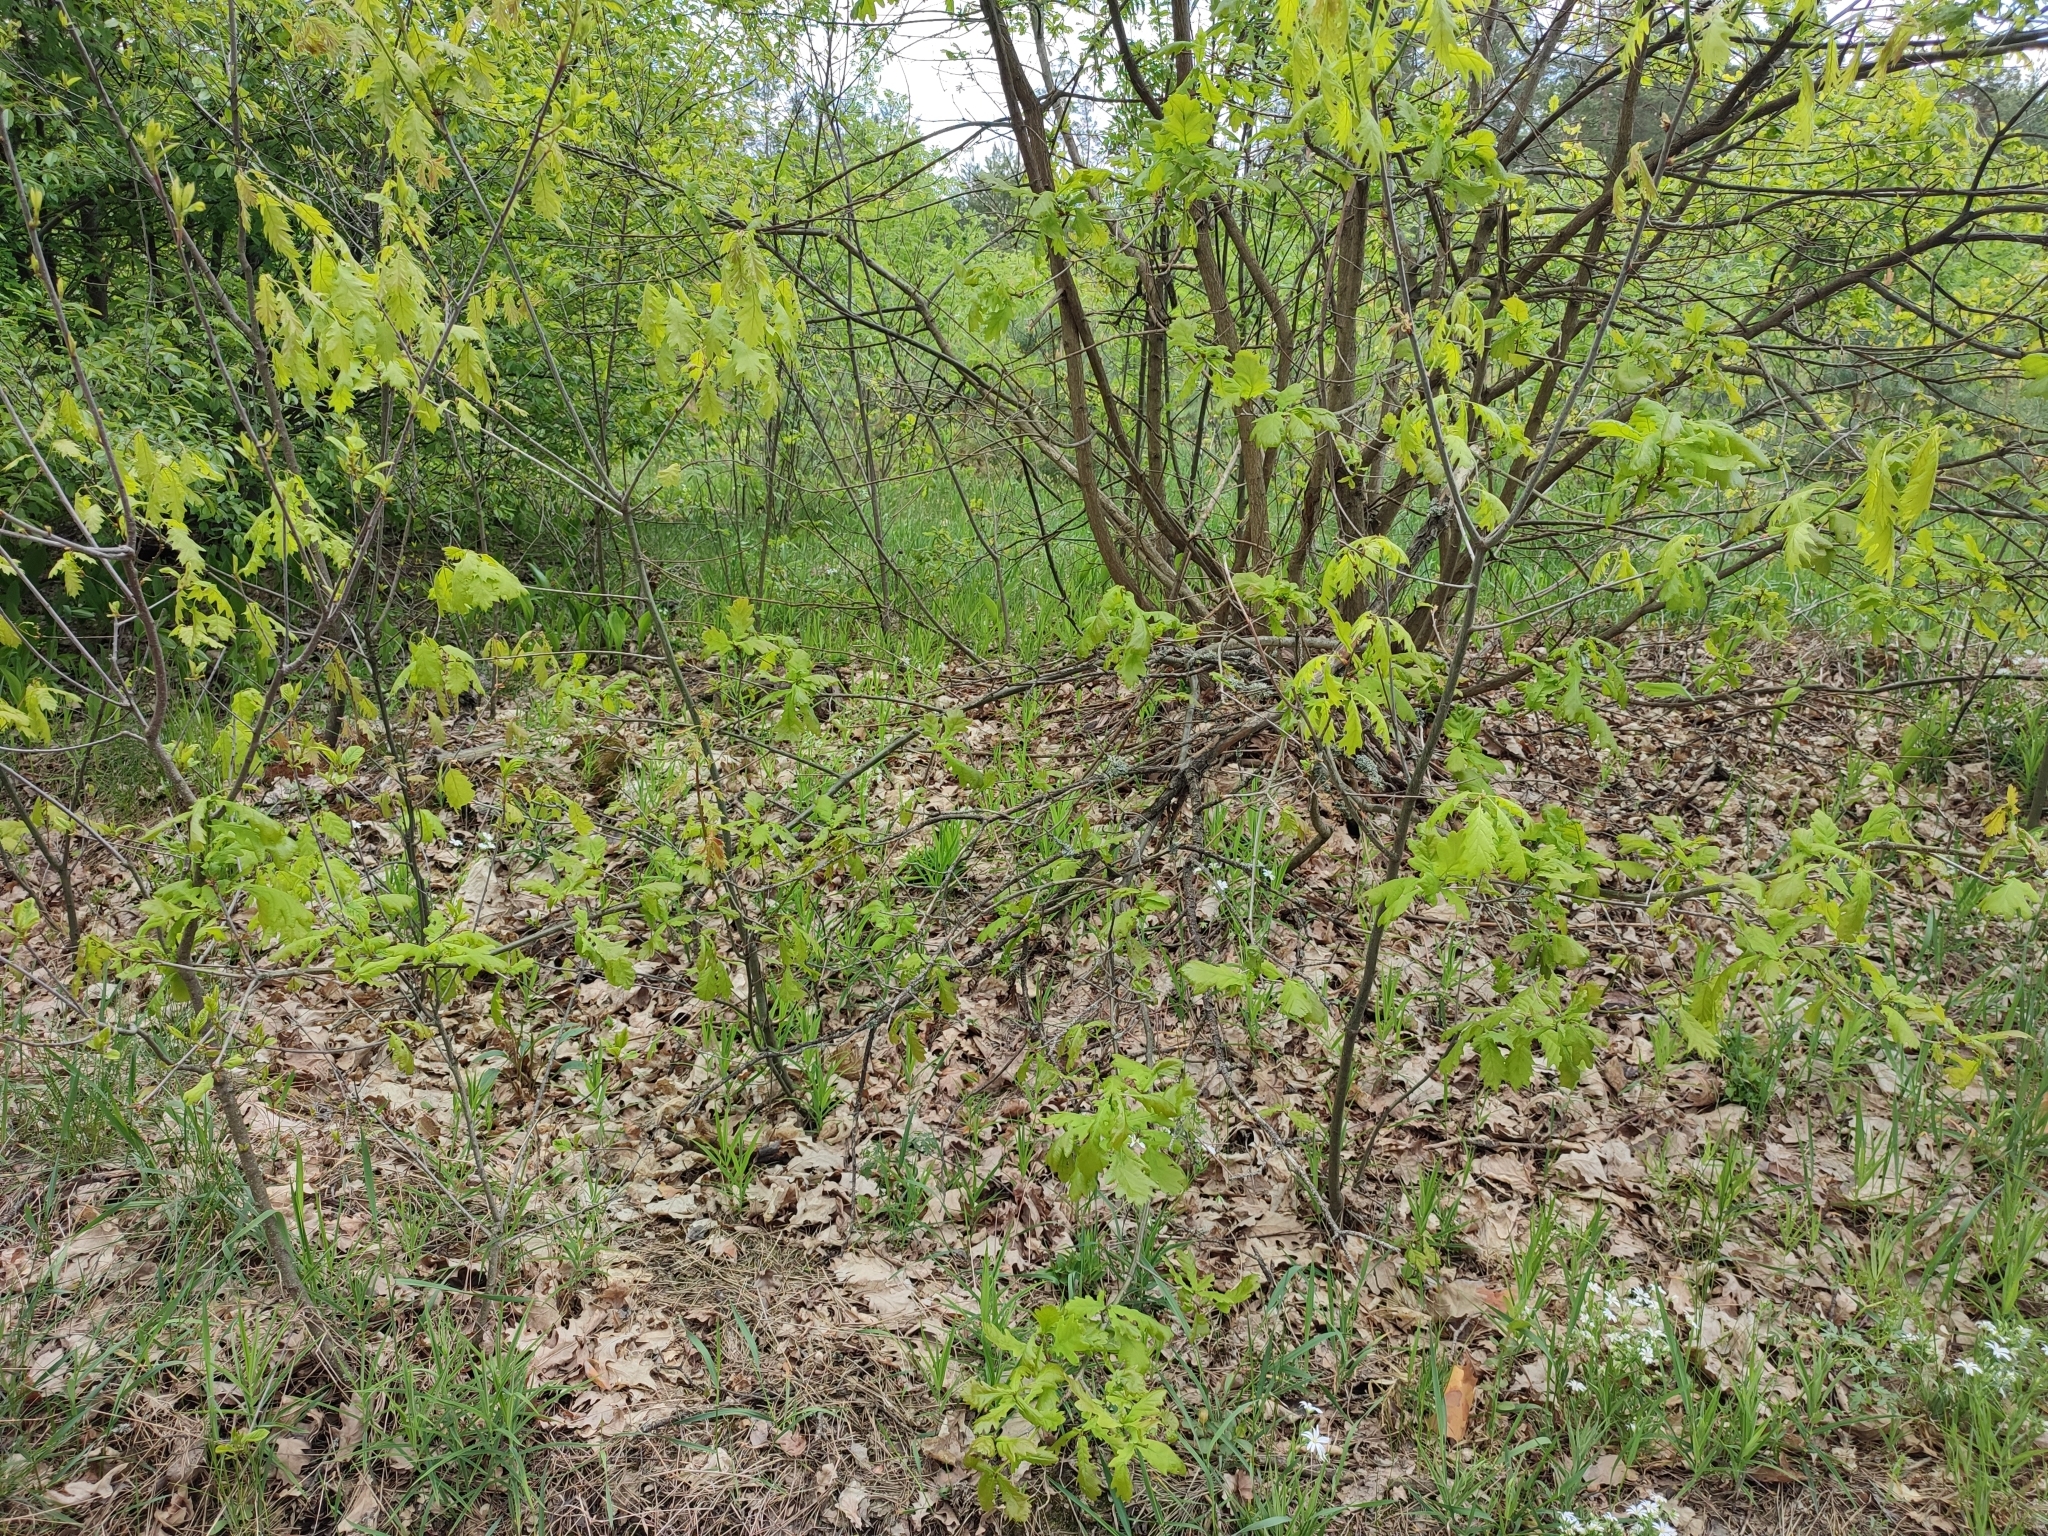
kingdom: Plantae
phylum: Tracheophyta
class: Magnoliopsida
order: Fagales
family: Fagaceae
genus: Quercus
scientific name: Quercus robur
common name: Pedunculate oak
